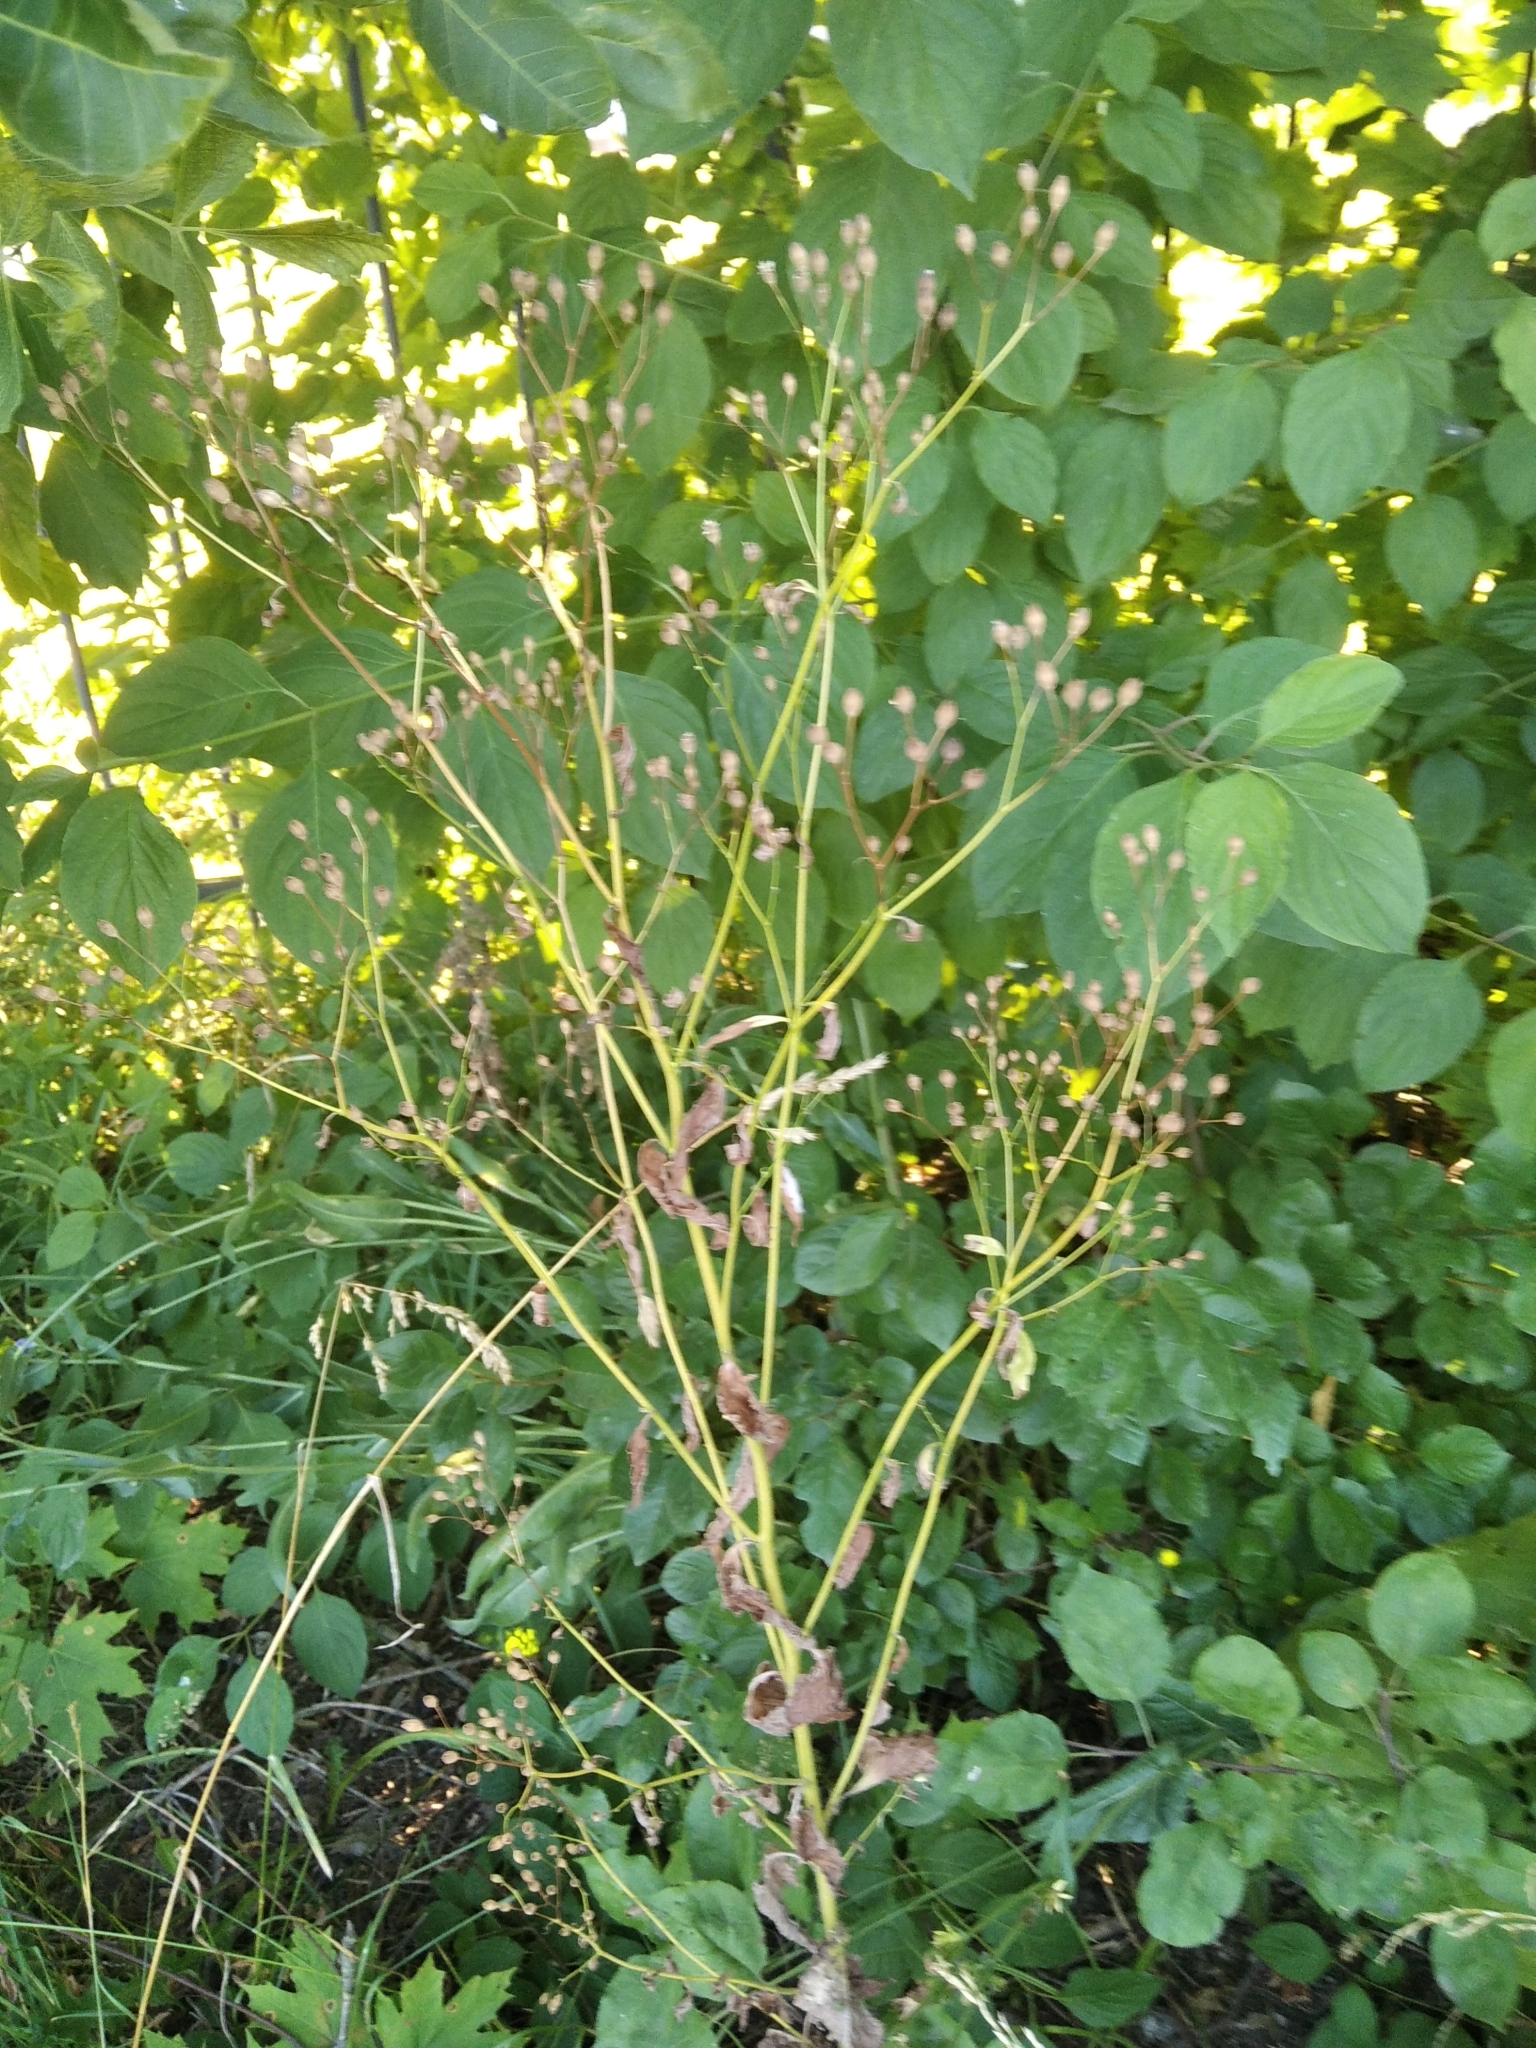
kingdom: Plantae
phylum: Tracheophyta
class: Magnoliopsida
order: Asterales
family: Asteraceae
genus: Lapsana
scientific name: Lapsana communis
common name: Nipplewort
